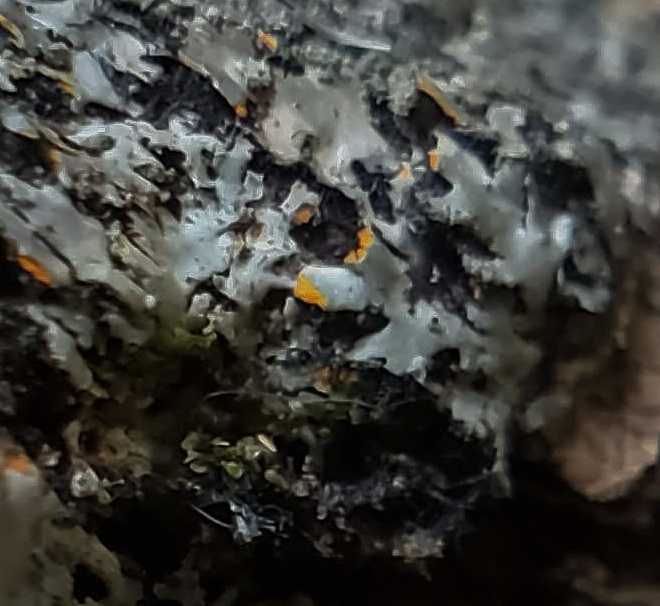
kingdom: Fungi
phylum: Ascomycota
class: Lecanoromycetes
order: Caliciales
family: Physciaceae
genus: Phaeophyscia
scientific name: Phaeophyscia rubropulchra
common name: Orange-cored shadow lichen
